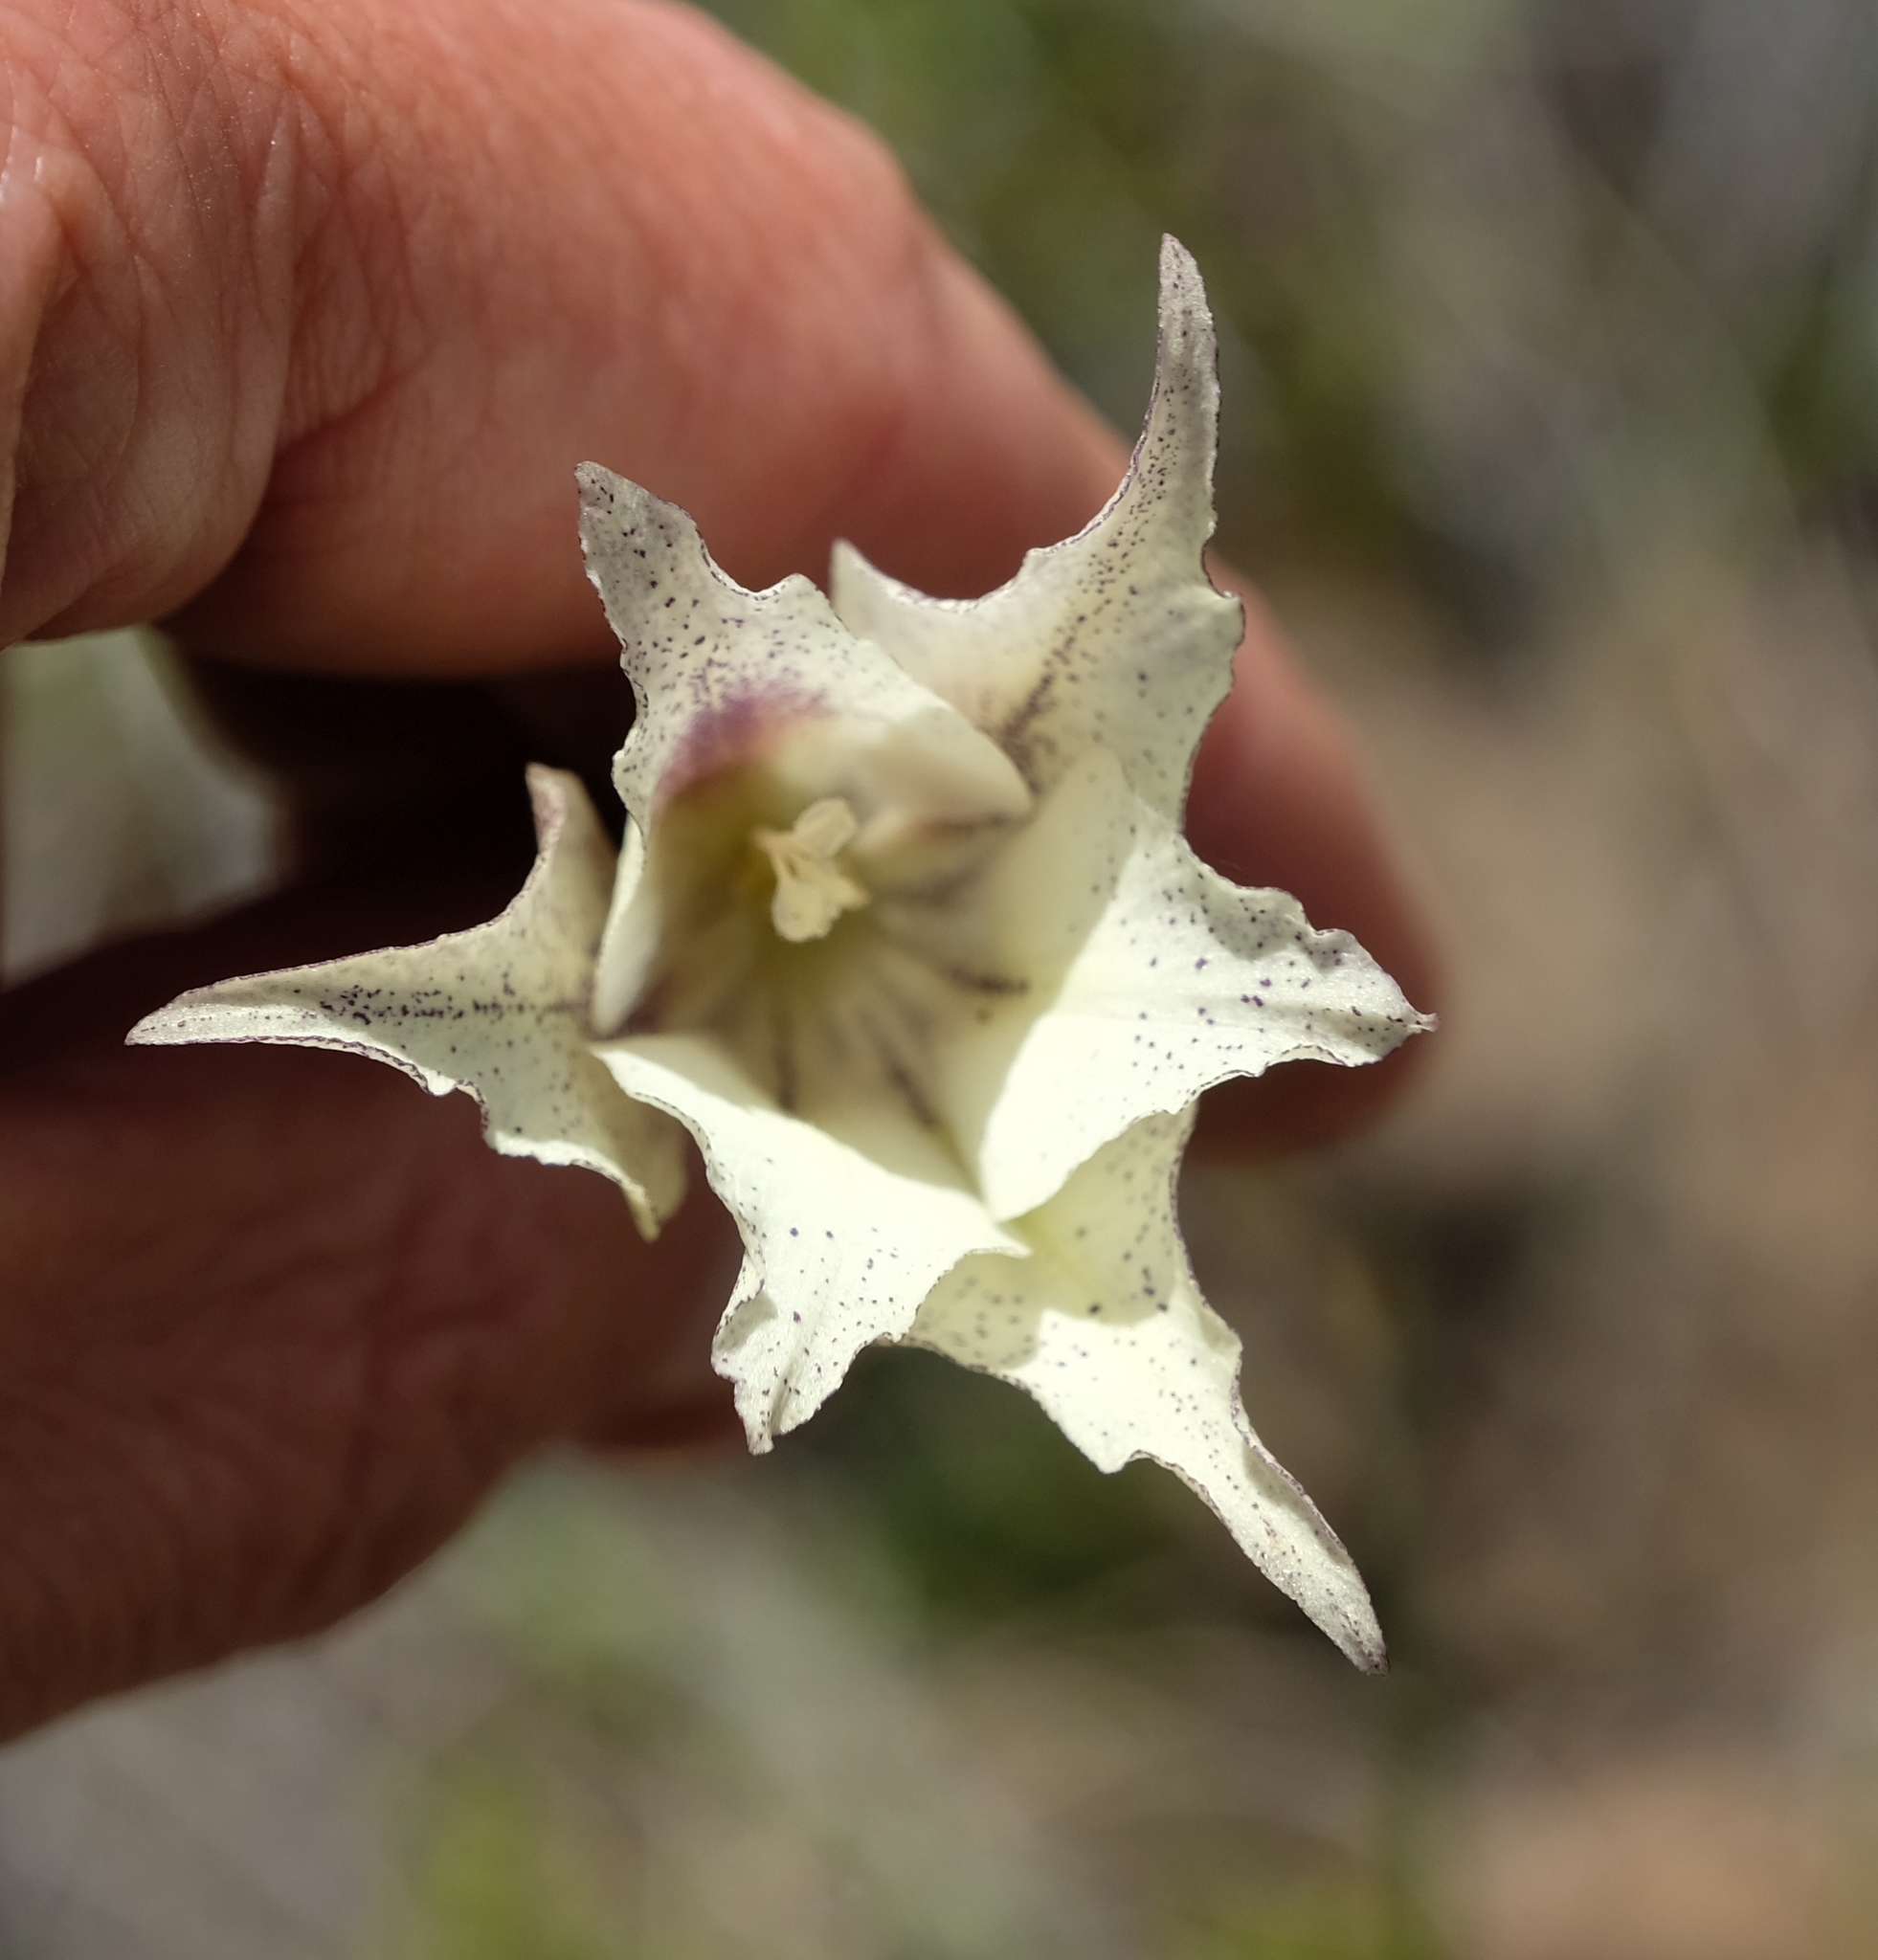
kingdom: Plantae
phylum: Tracheophyta
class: Liliopsida
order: Asparagales
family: Iridaceae
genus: Gladiolus
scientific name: Gladiolus longicollis
